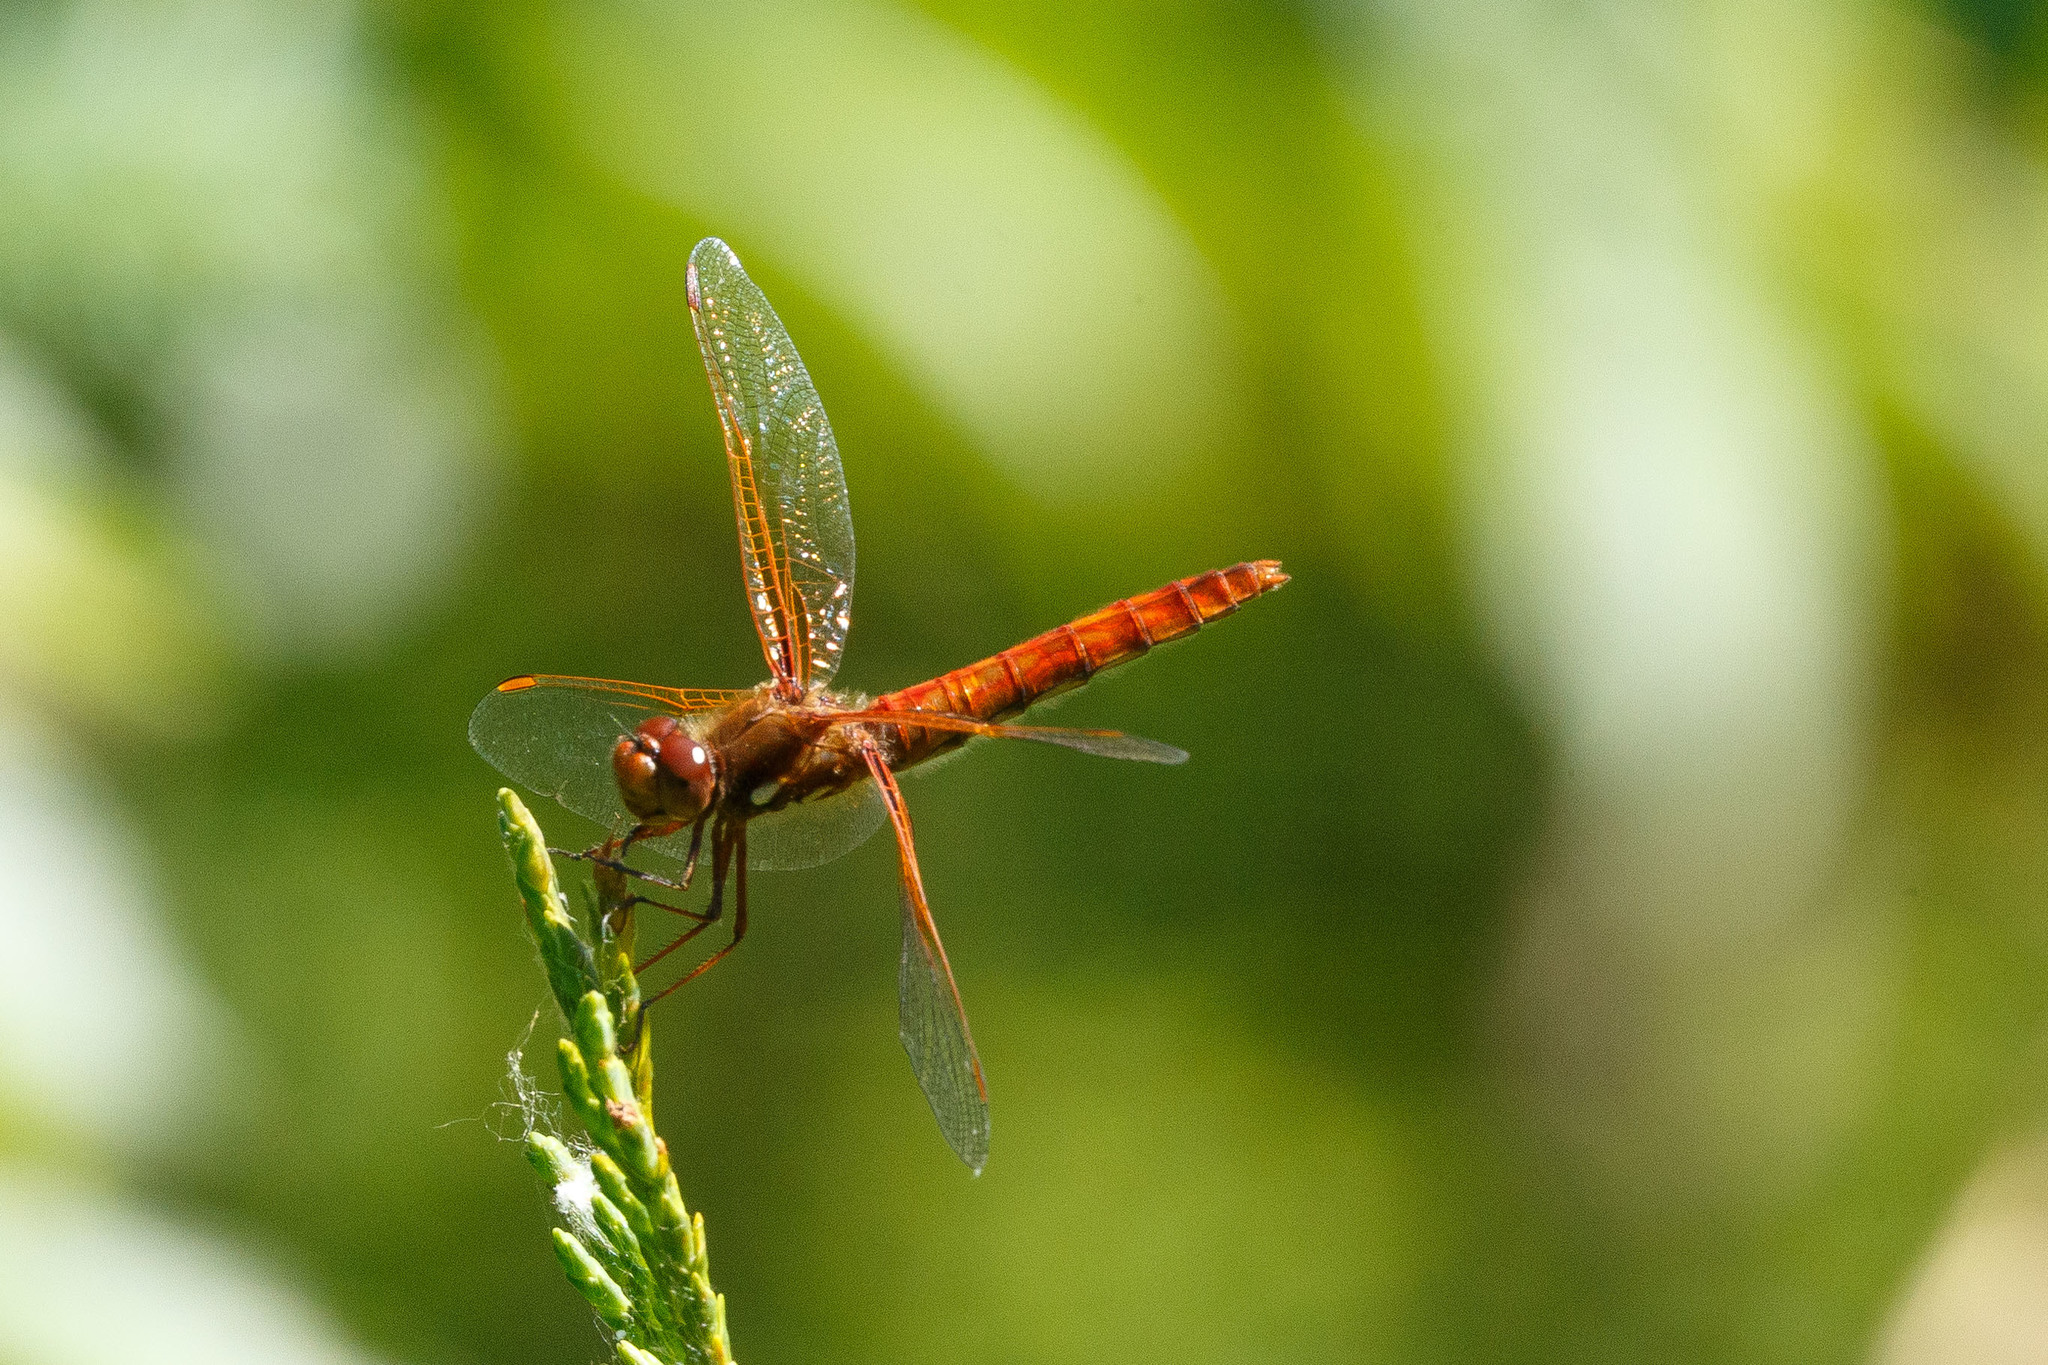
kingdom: Animalia
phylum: Arthropoda
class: Insecta
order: Odonata
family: Libellulidae
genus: Sympetrum
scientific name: Sympetrum illotum
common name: Cardinal meadowhawk
